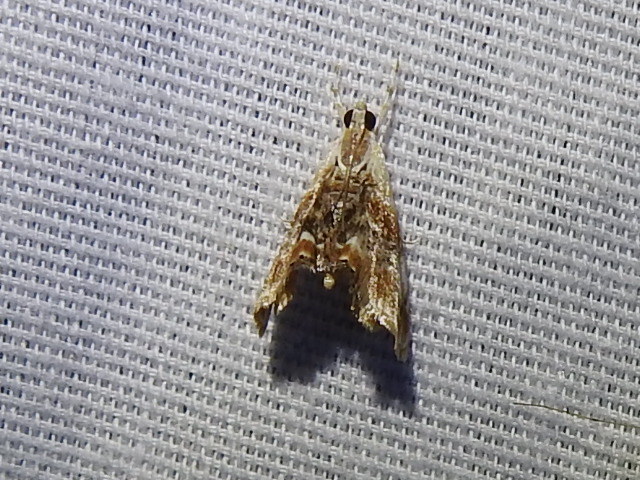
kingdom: Animalia
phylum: Arthropoda
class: Insecta
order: Lepidoptera
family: Crambidae
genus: Dicymolomia
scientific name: Dicymolomia julianalis
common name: Julia's dicymolomia moth
